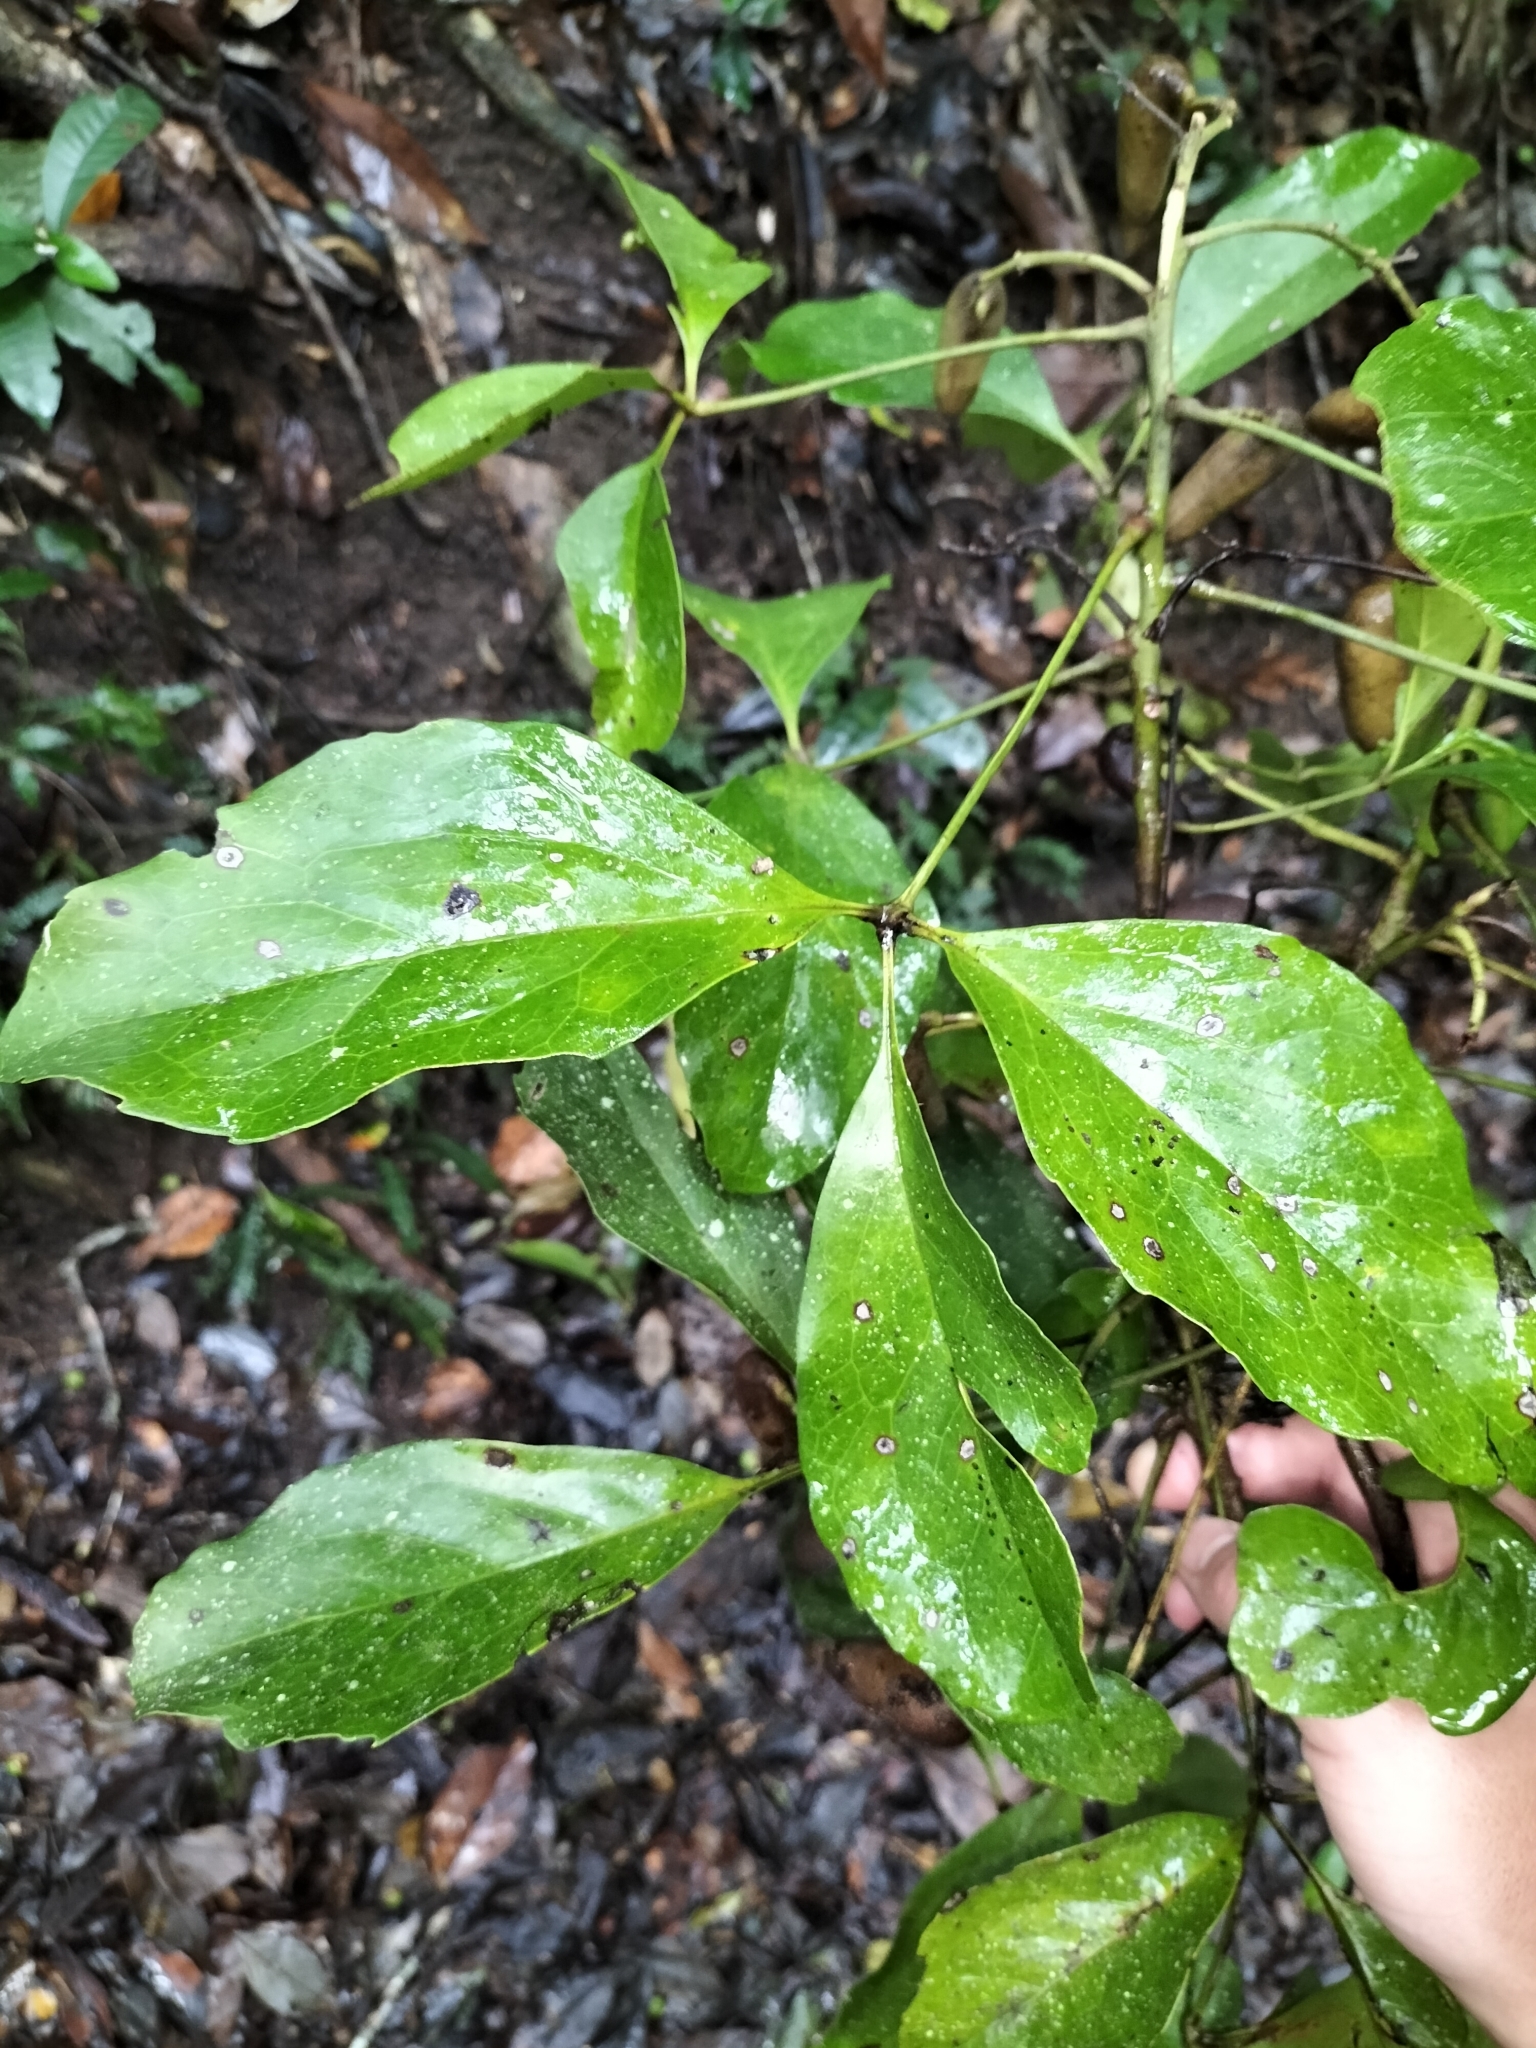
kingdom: Plantae
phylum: Tracheophyta
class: Magnoliopsida
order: Proteales
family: Proteaceae
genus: Carnarvonia
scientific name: Carnarvonia araliifolia
